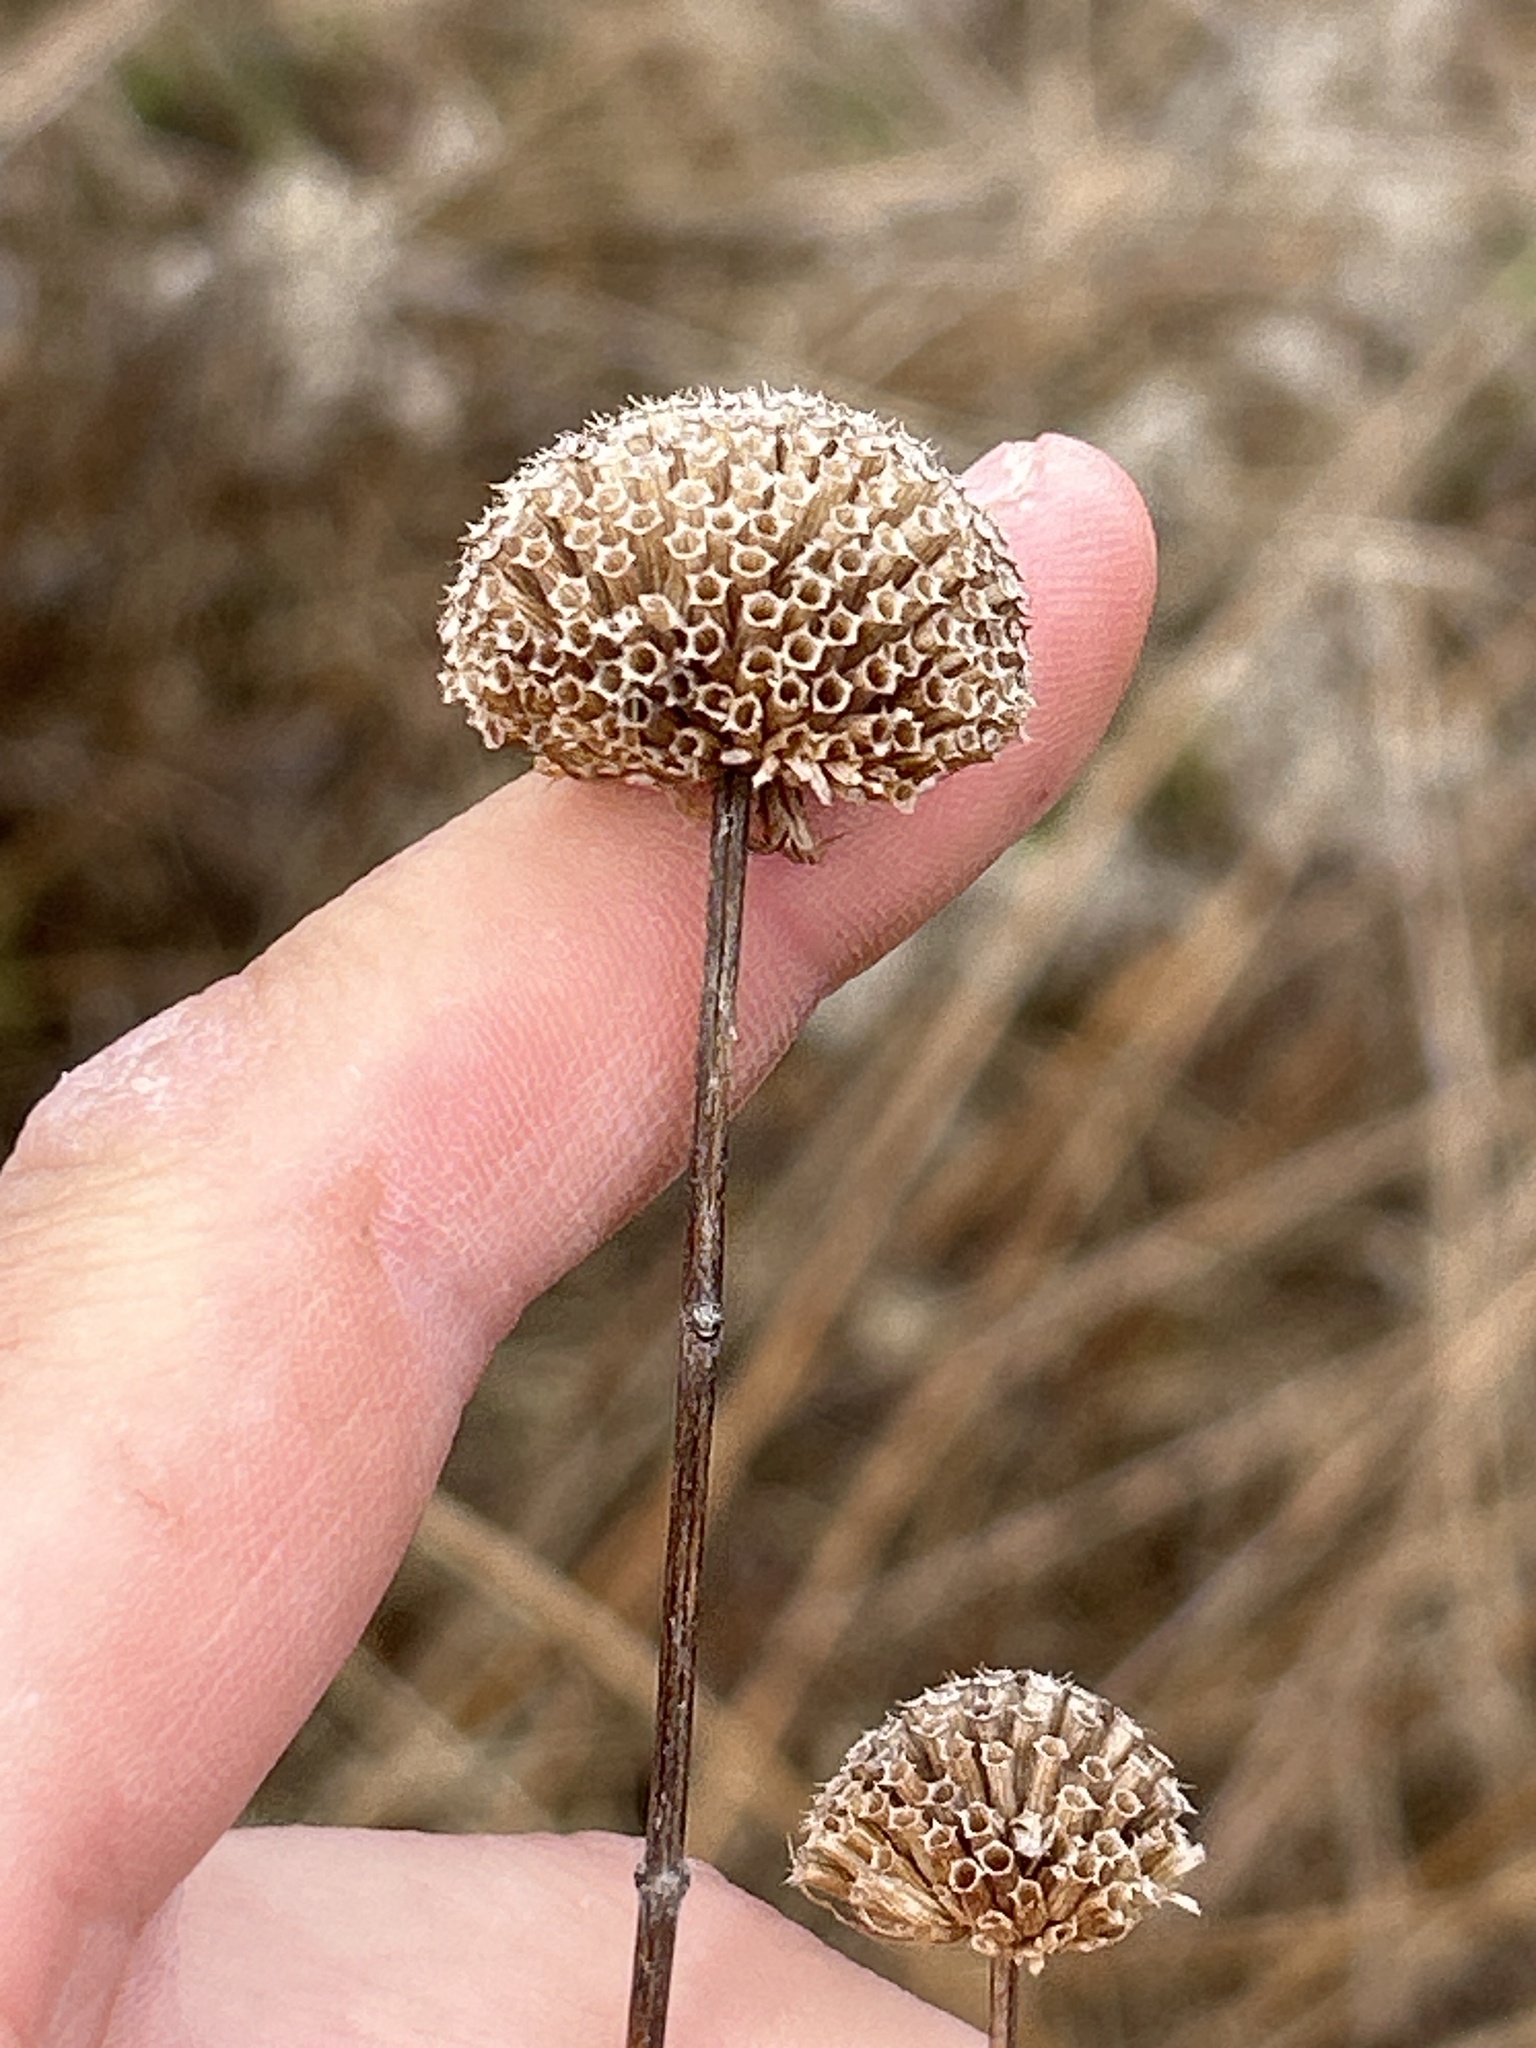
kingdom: Plantae
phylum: Tracheophyta
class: Magnoliopsida
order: Lamiales
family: Lamiaceae
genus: Monarda
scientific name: Monarda fistulosa
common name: Purple beebalm
